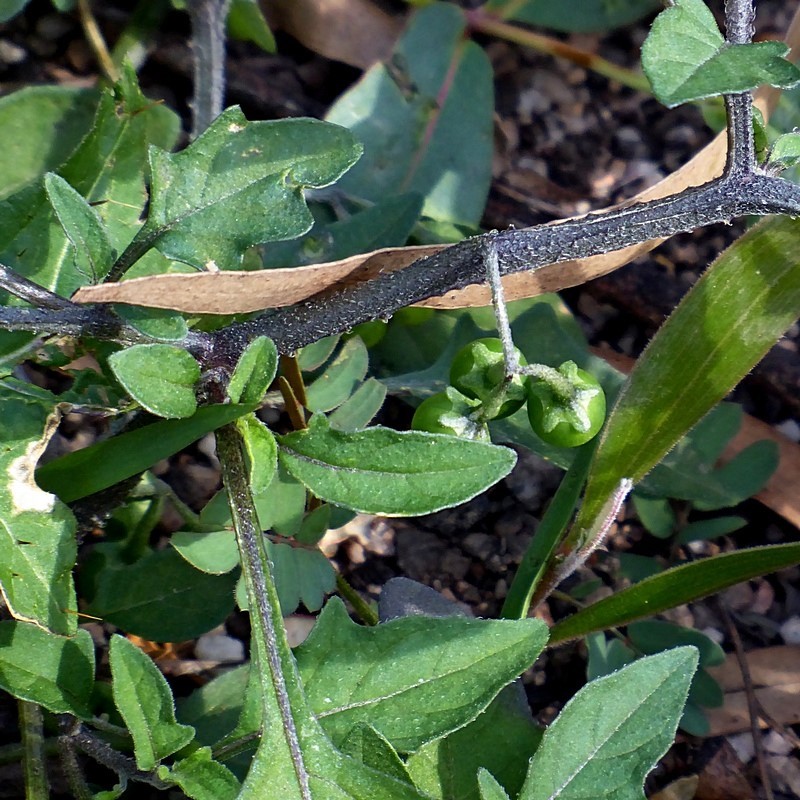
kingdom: Plantae
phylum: Tracheophyta
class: Magnoliopsida
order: Solanales
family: Solanaceae
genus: Solanum
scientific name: Solanum opacum
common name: Green-berry nightshade
